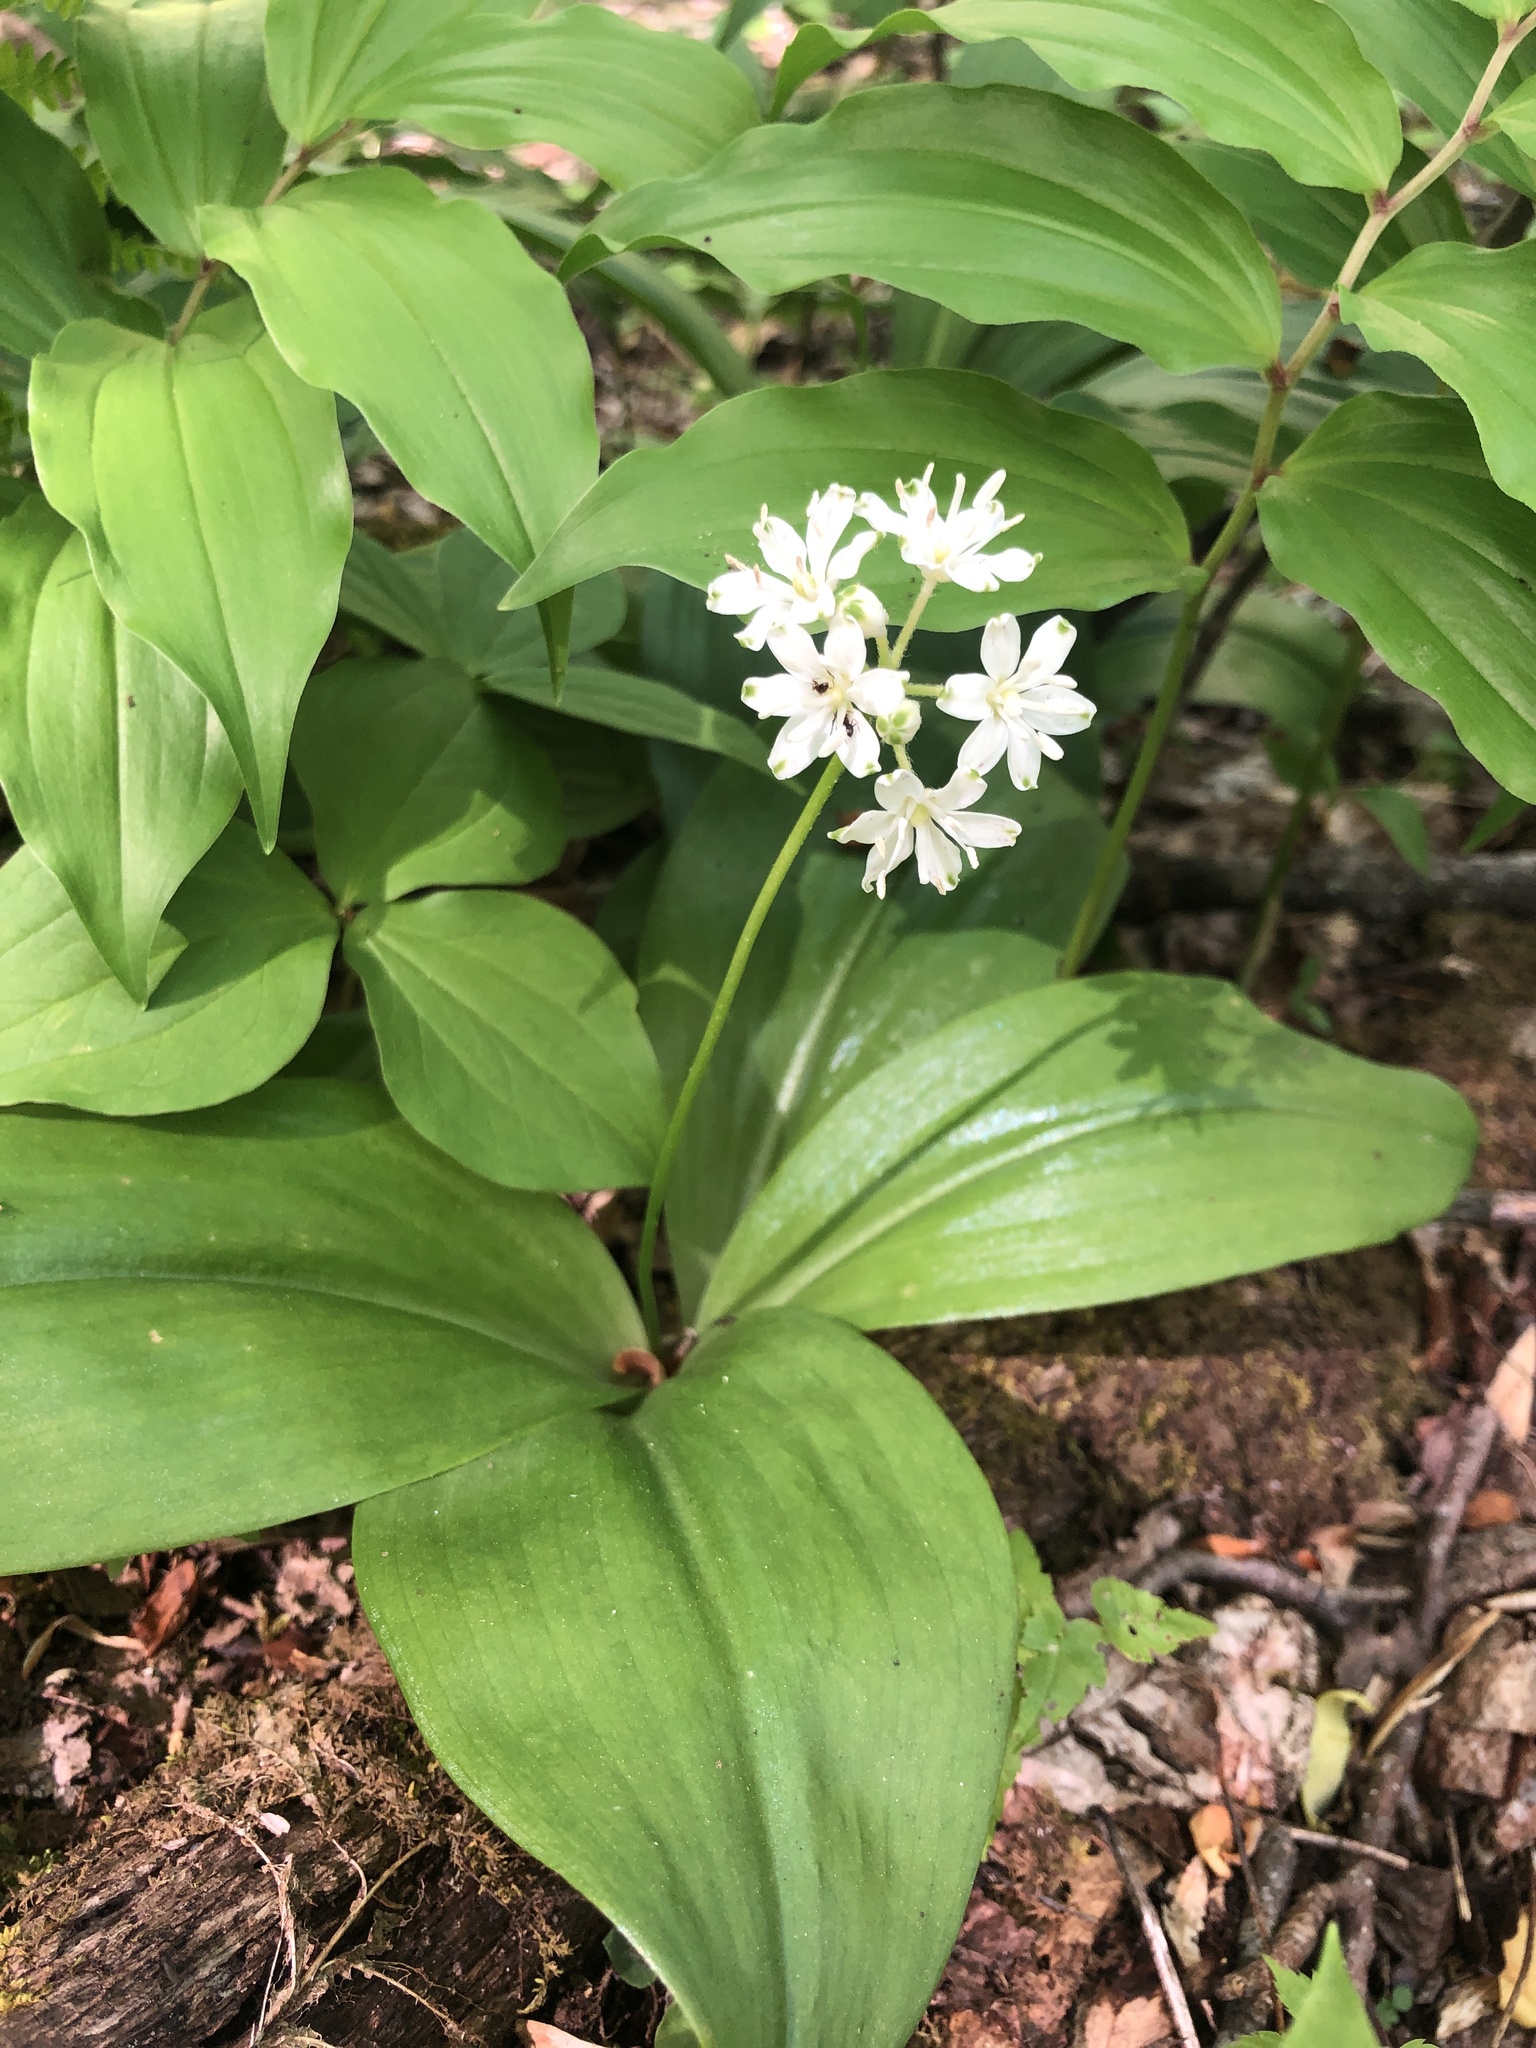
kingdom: Plantae
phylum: Tracheophyta
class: Liliopsida
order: Liliales
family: Liliaceae
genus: Clintonia
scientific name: Clintonia umbellulata
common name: Speckle wood-lily
